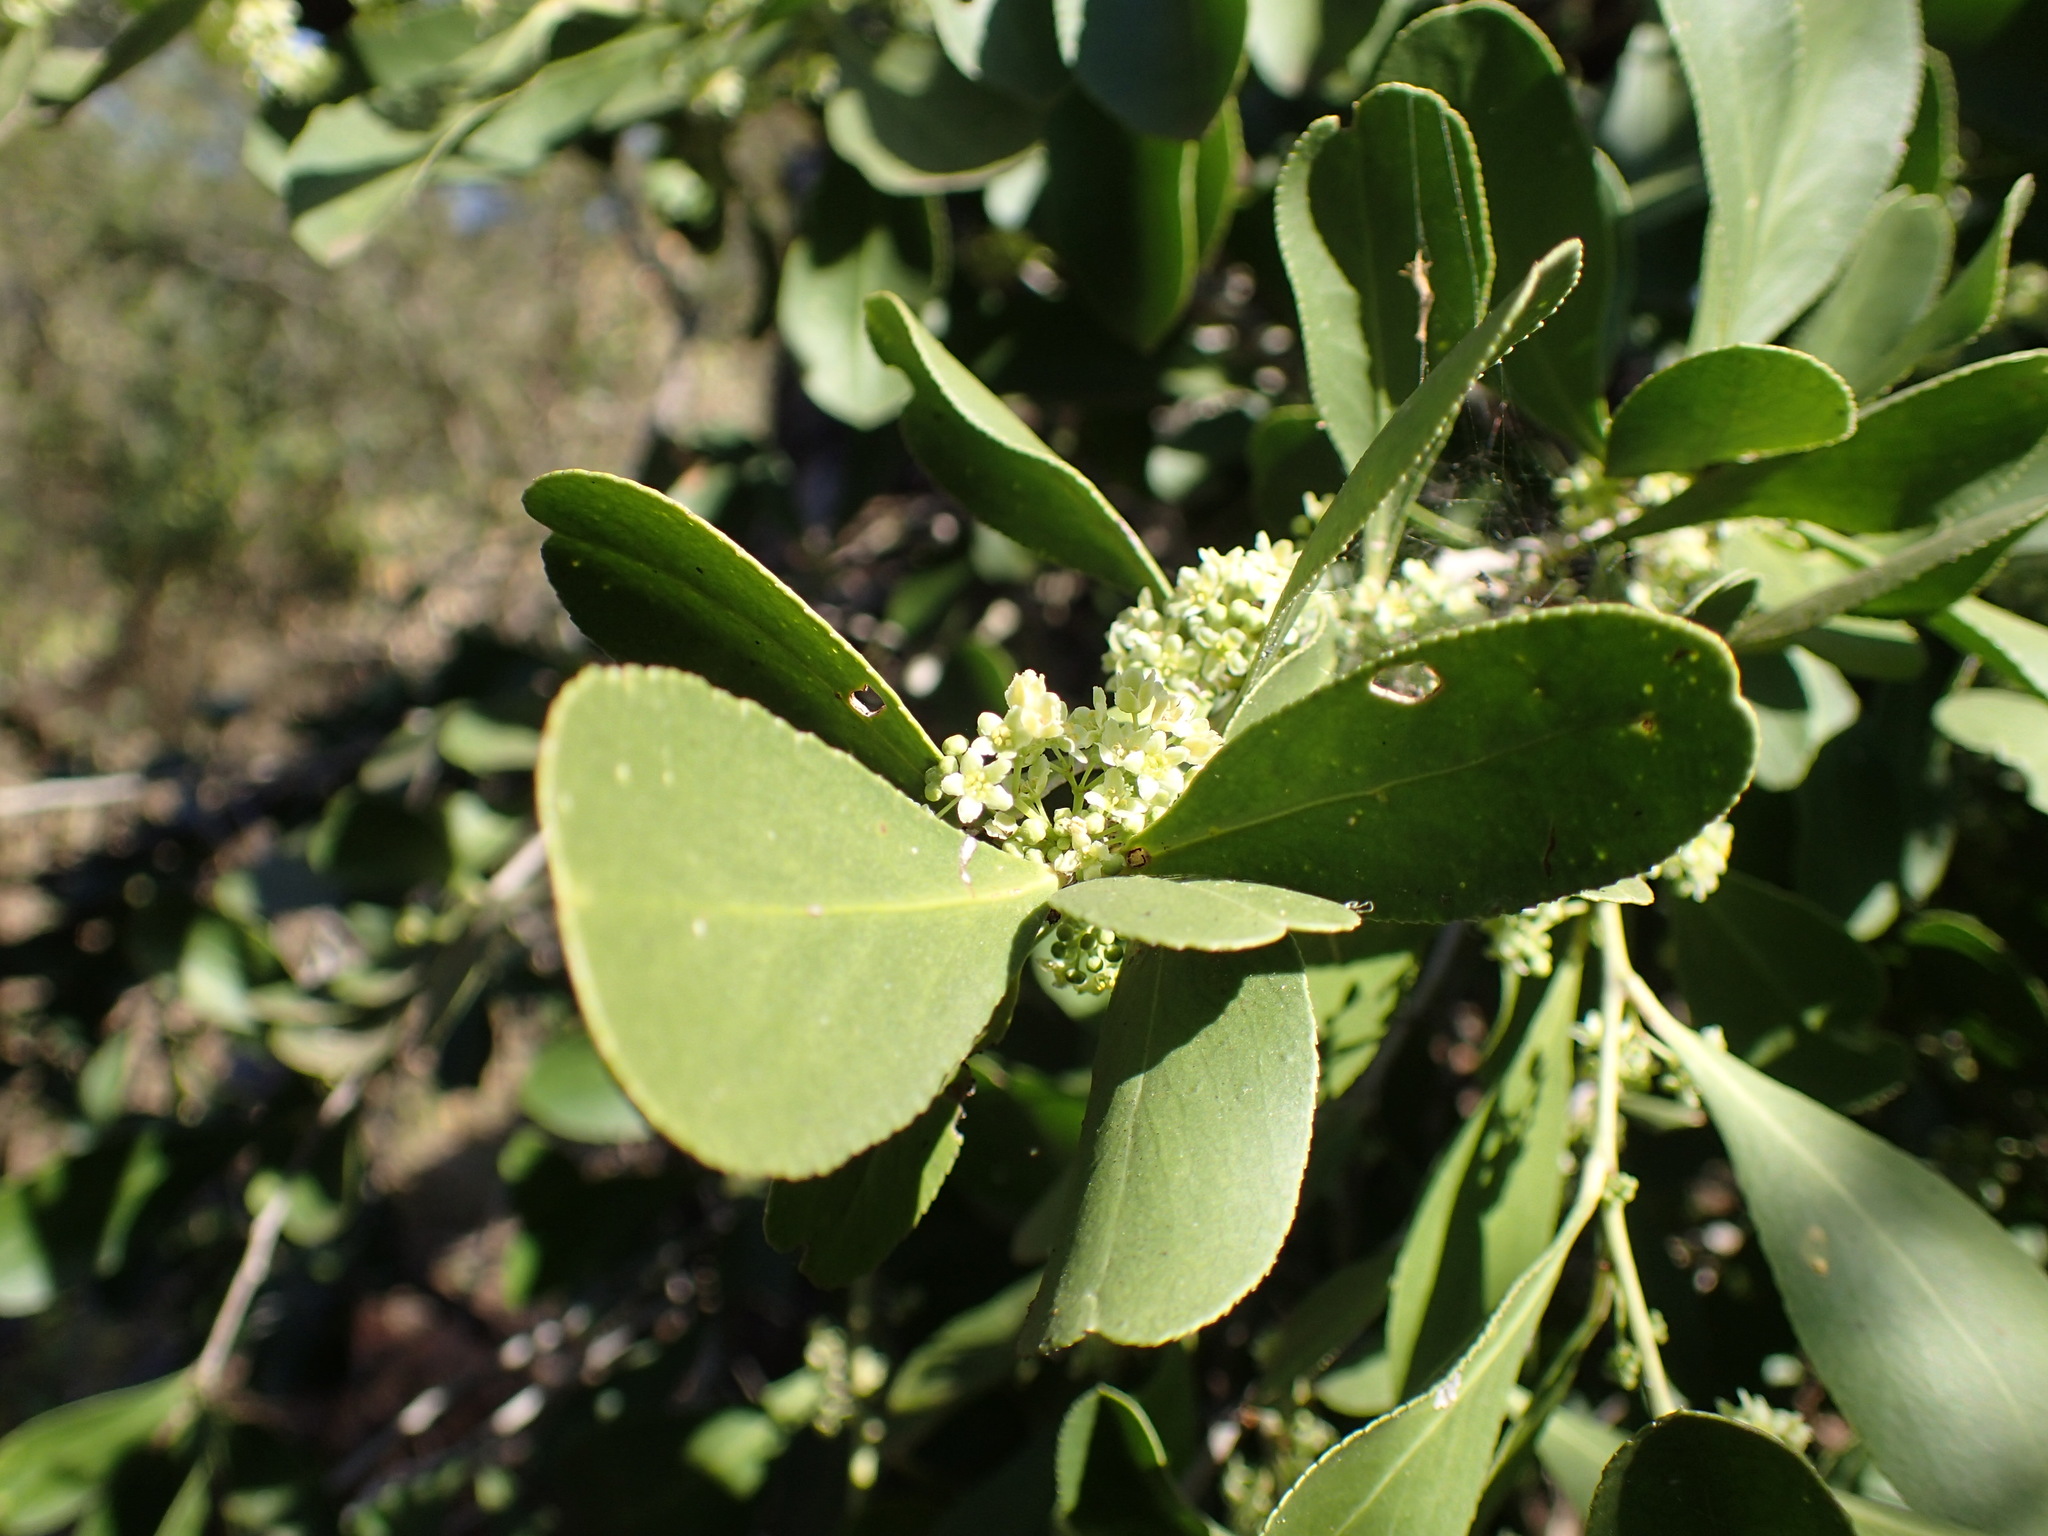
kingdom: Plantae
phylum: Tracheophyta
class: Magnoliopsida
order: Celastrales
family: Celastraceae
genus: Gymnosporia
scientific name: Gymnosporia senegalensis
